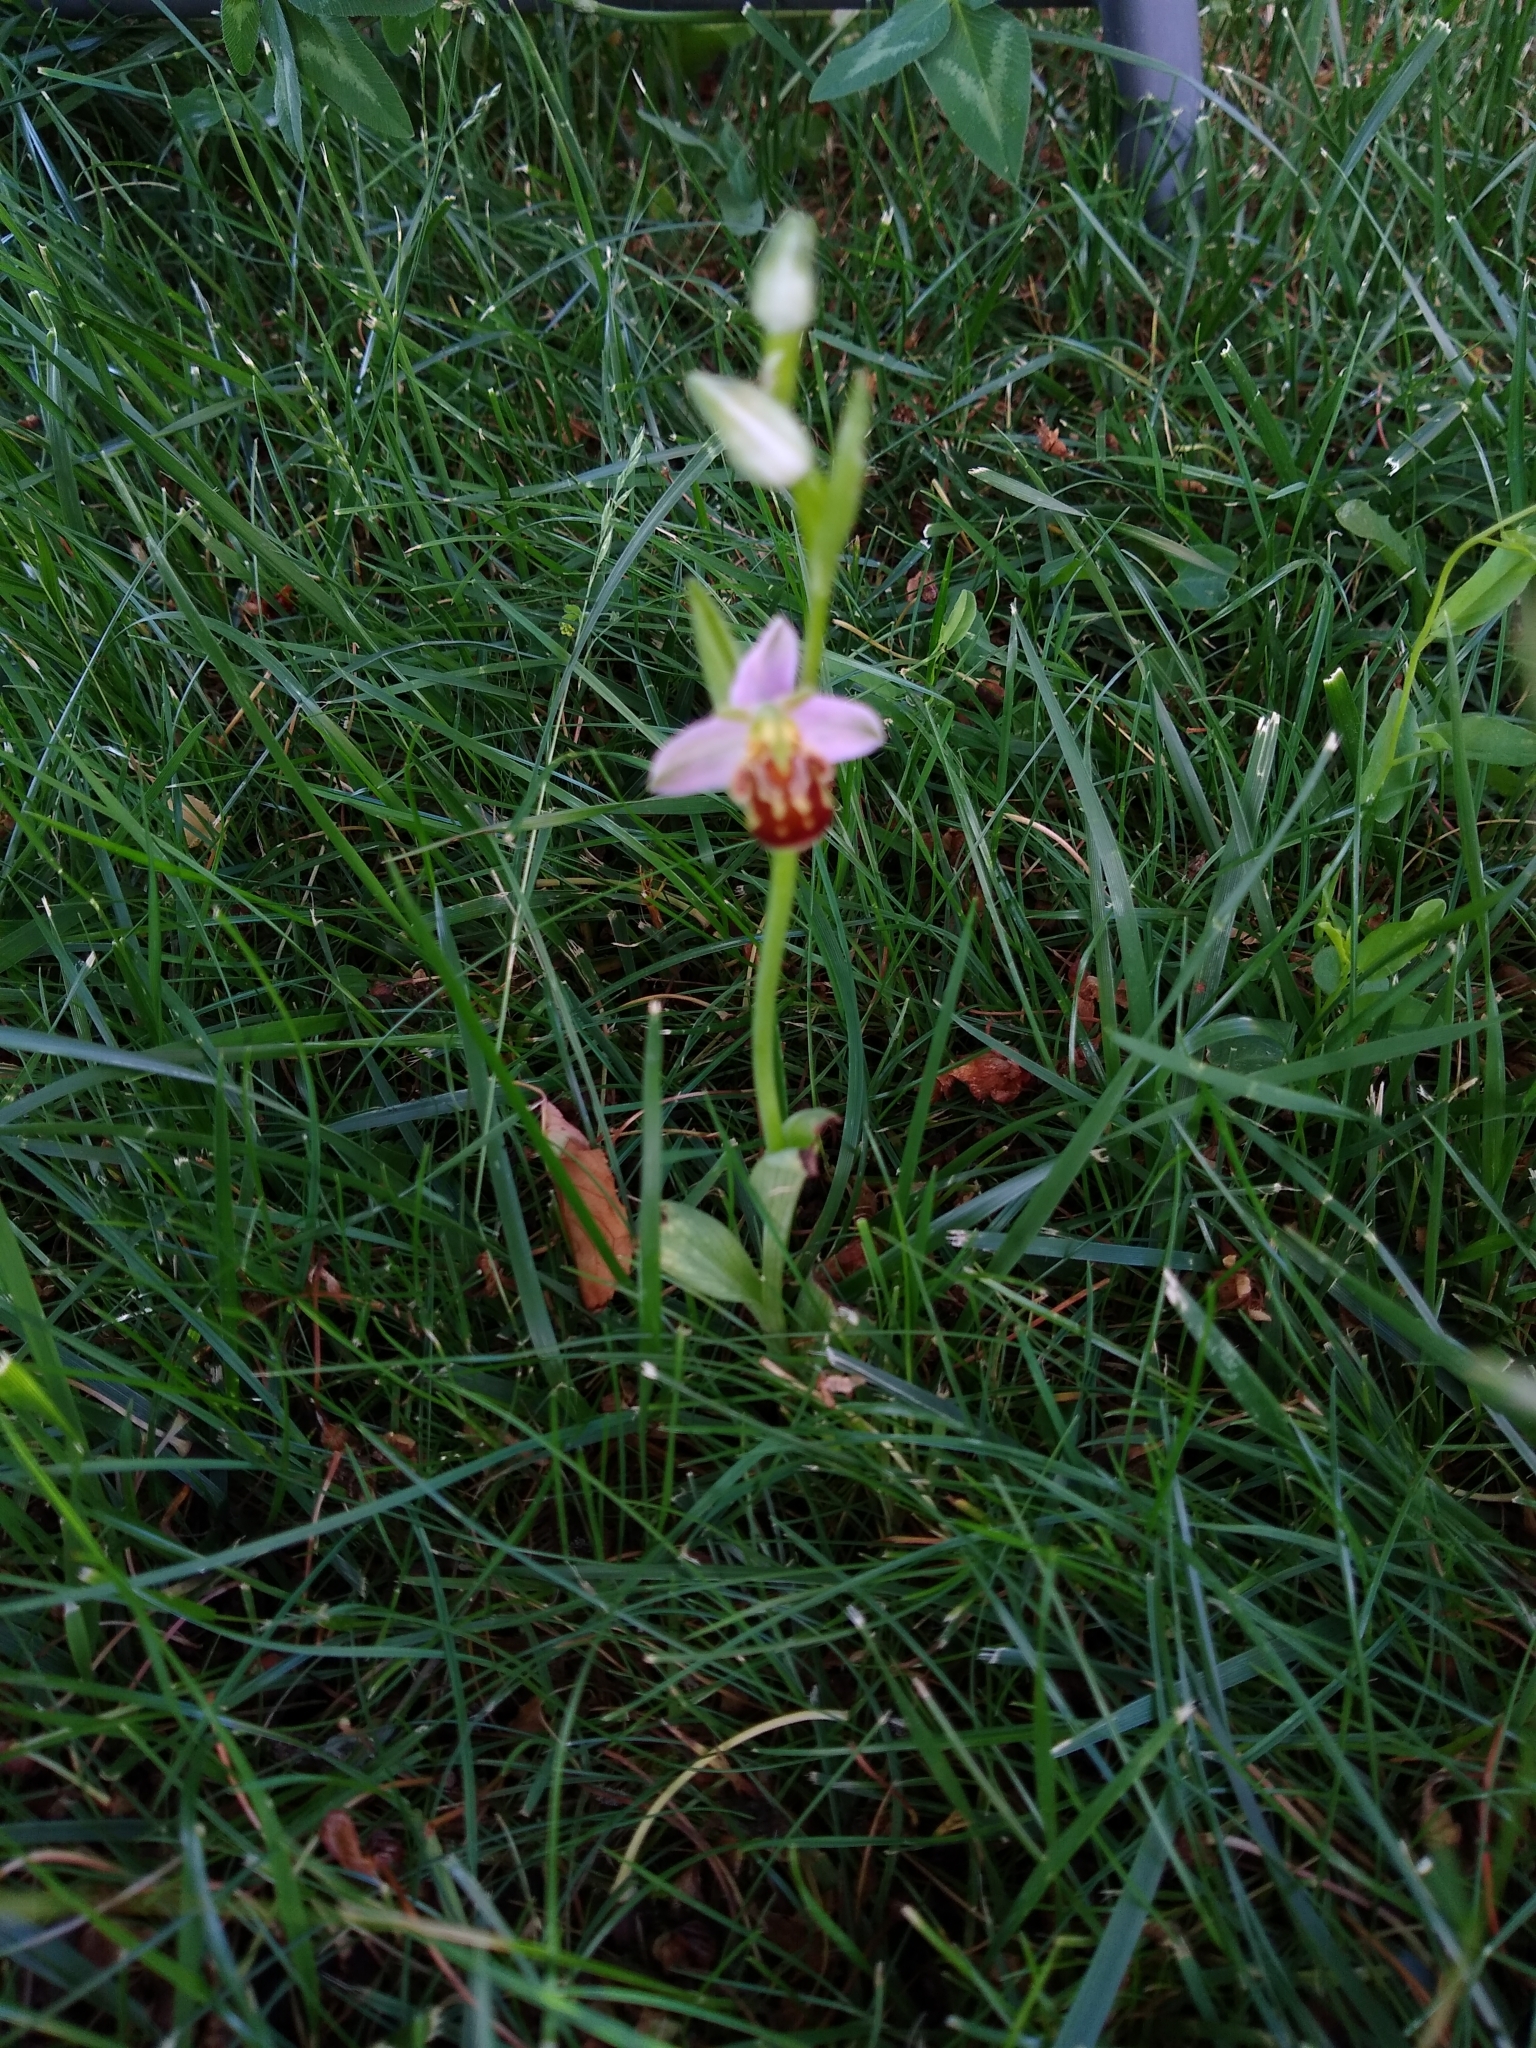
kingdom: Plantae
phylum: Tracheophyta
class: Liliopsida
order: Asparagales
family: Orchidaceae
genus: Ophrys
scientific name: Ophrys apifera
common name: Bee orchid
